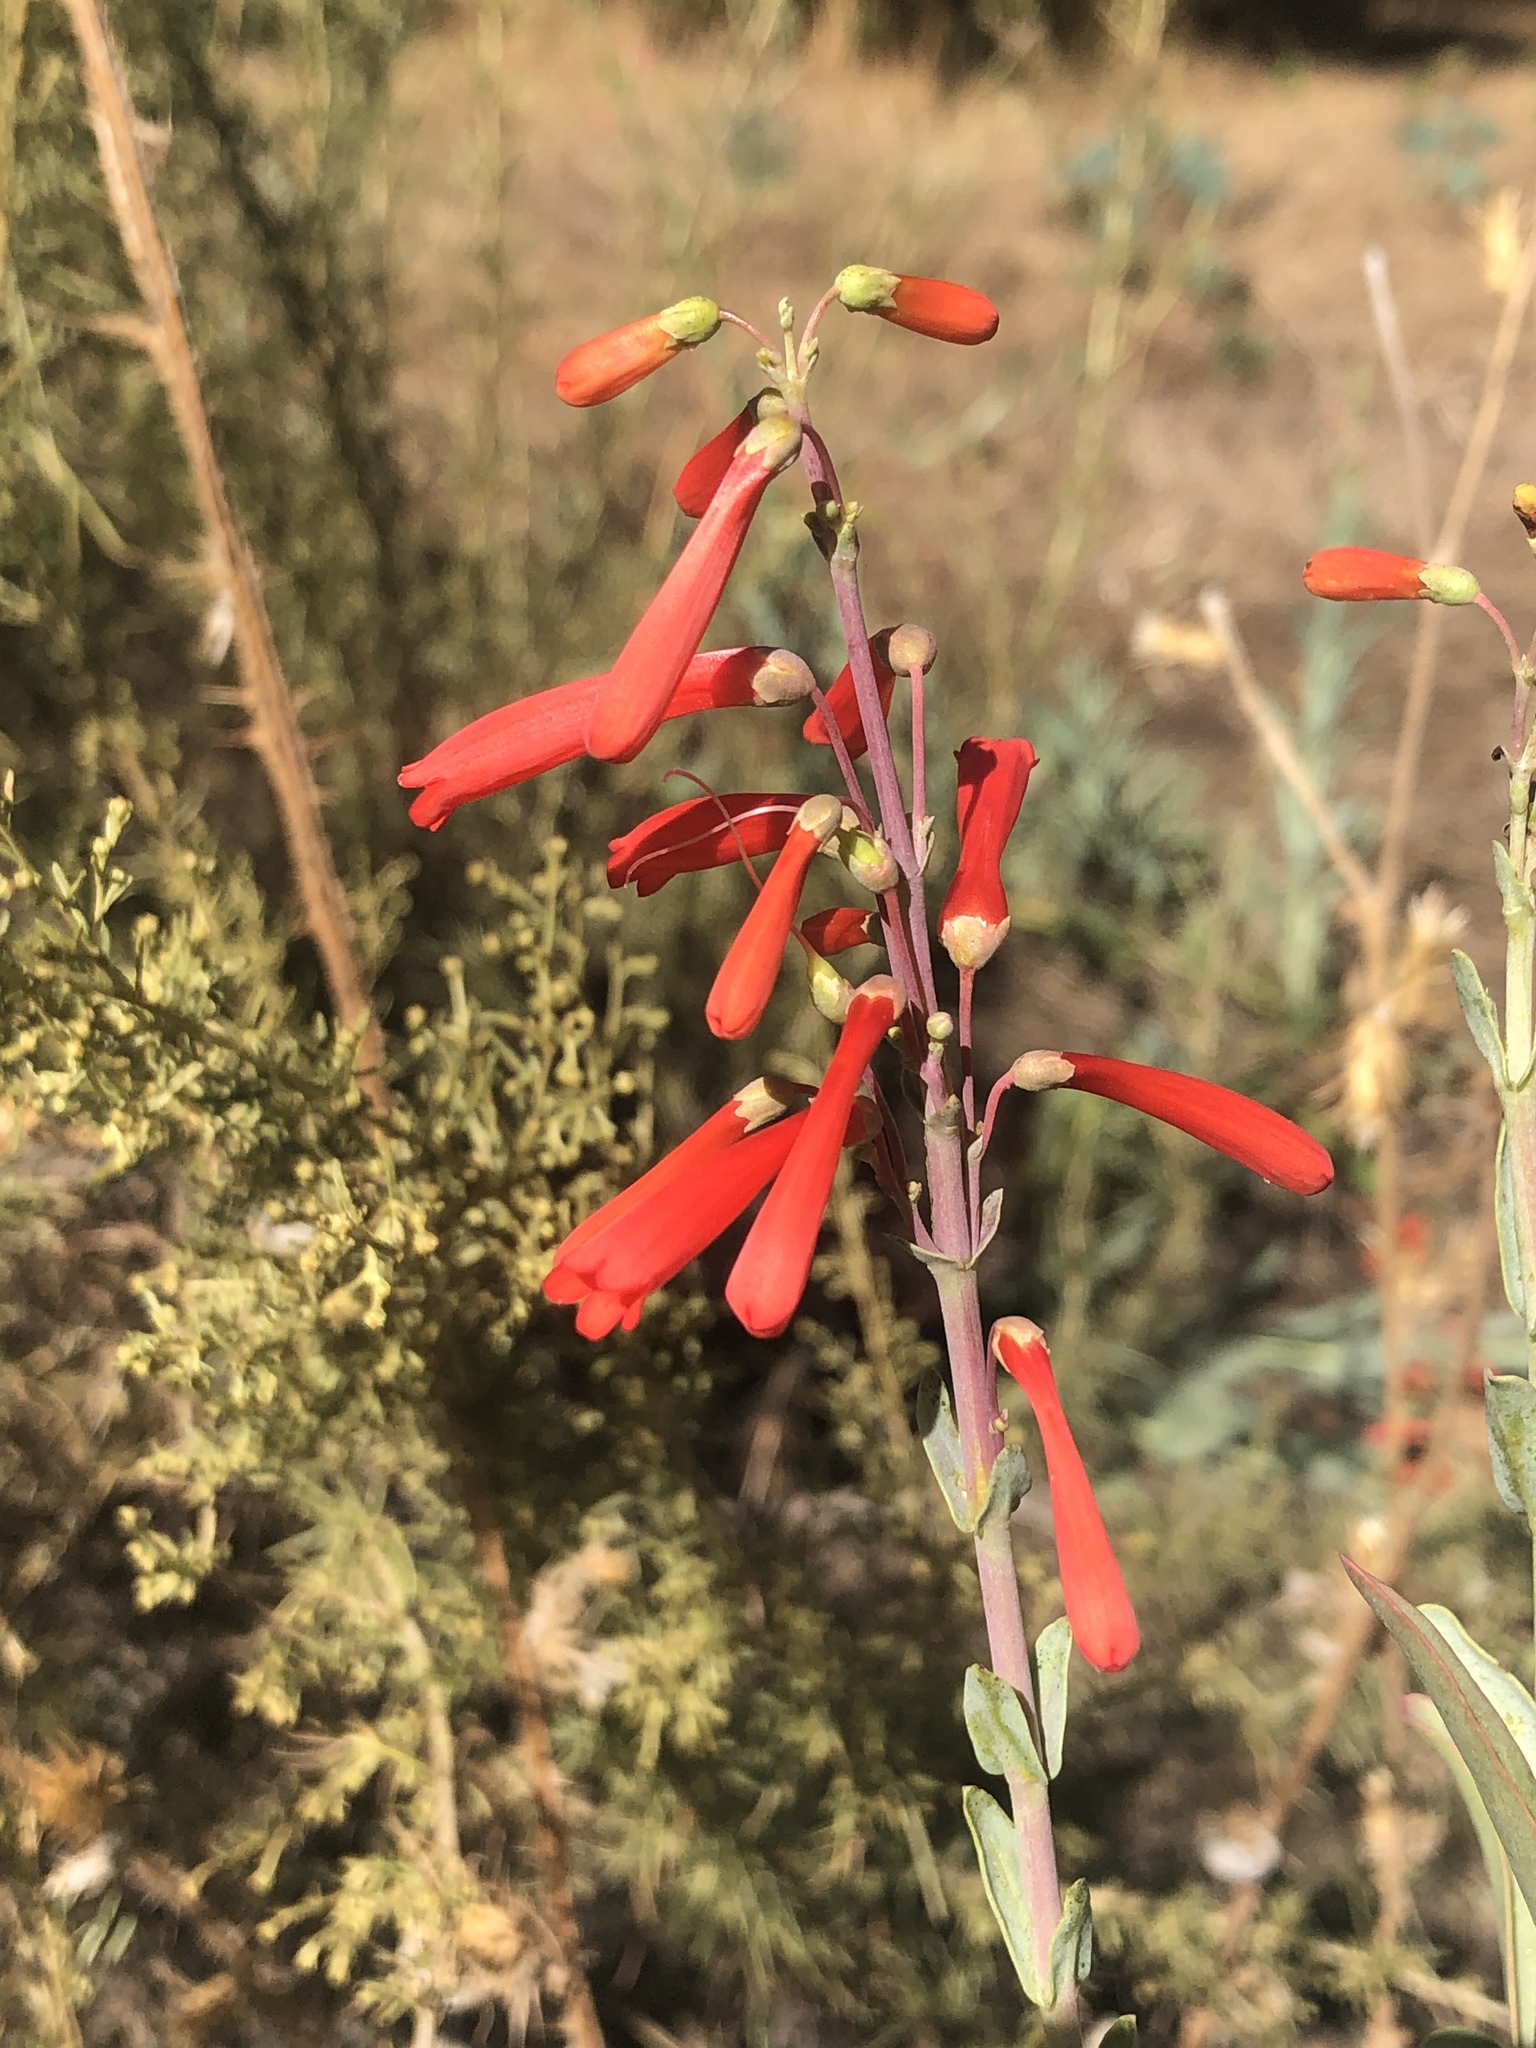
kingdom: Plantae
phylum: Tracheophyta
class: Magnoliopsida
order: Lamiales
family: Plantaginaceae
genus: Penstemon
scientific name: Penstemon centranthifolius
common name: Scarlet bugler
